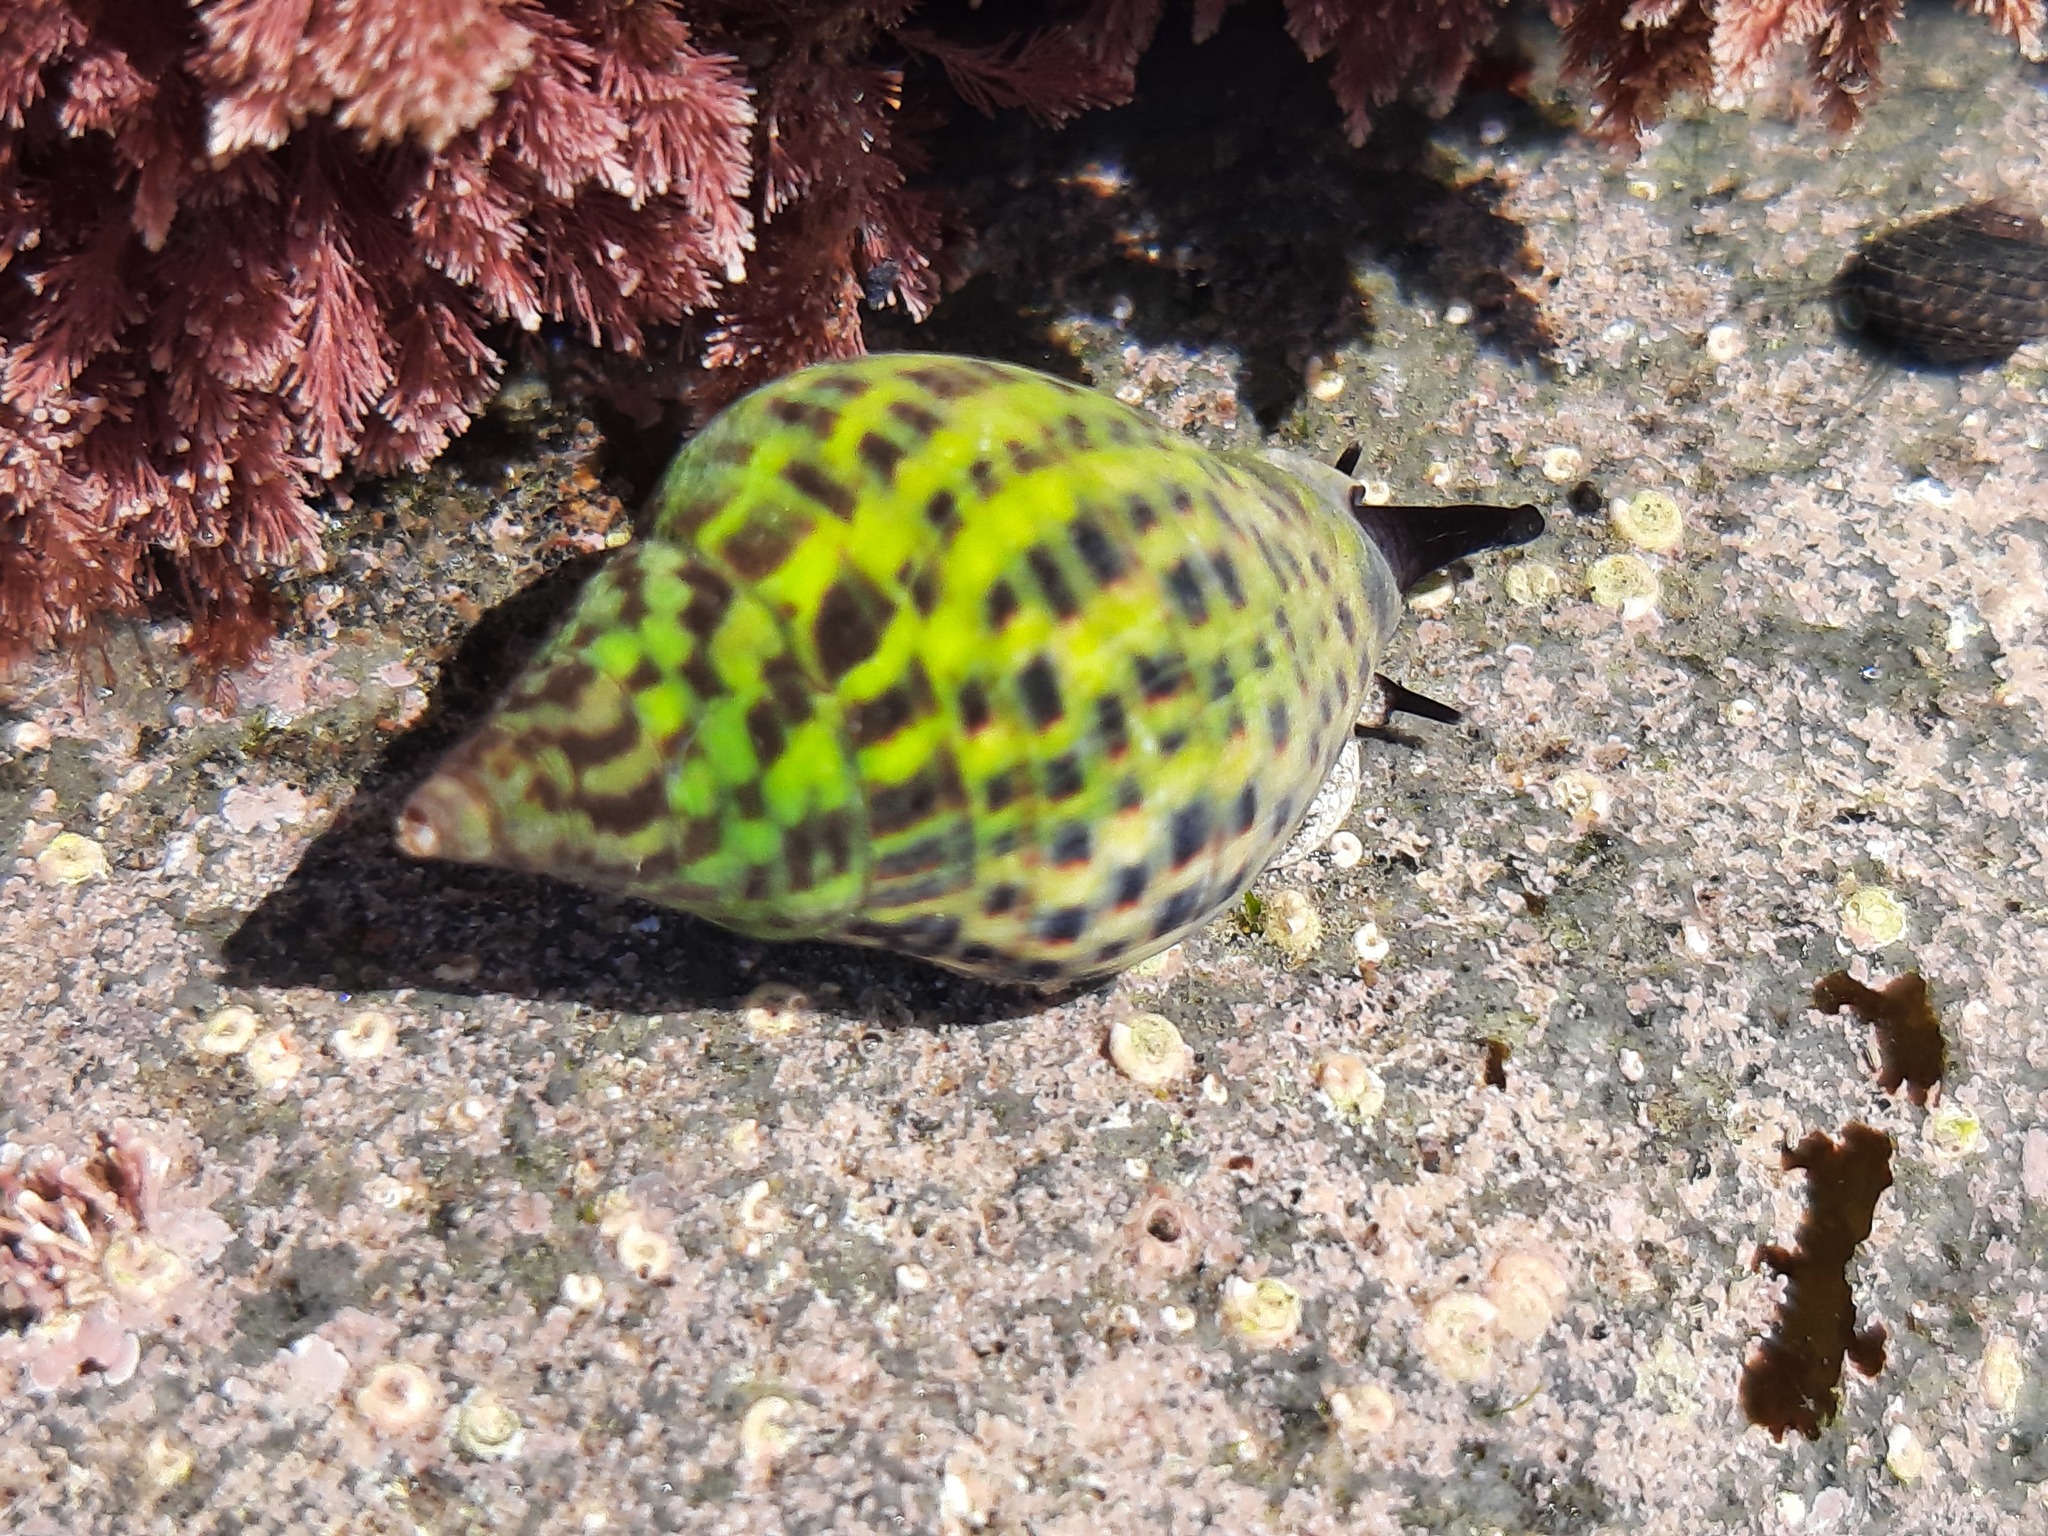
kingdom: Animalia
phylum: Mollusca
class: Gastropoda
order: Neogastropoda
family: Cominellidae
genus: Cominella
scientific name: Cominella maculosa
